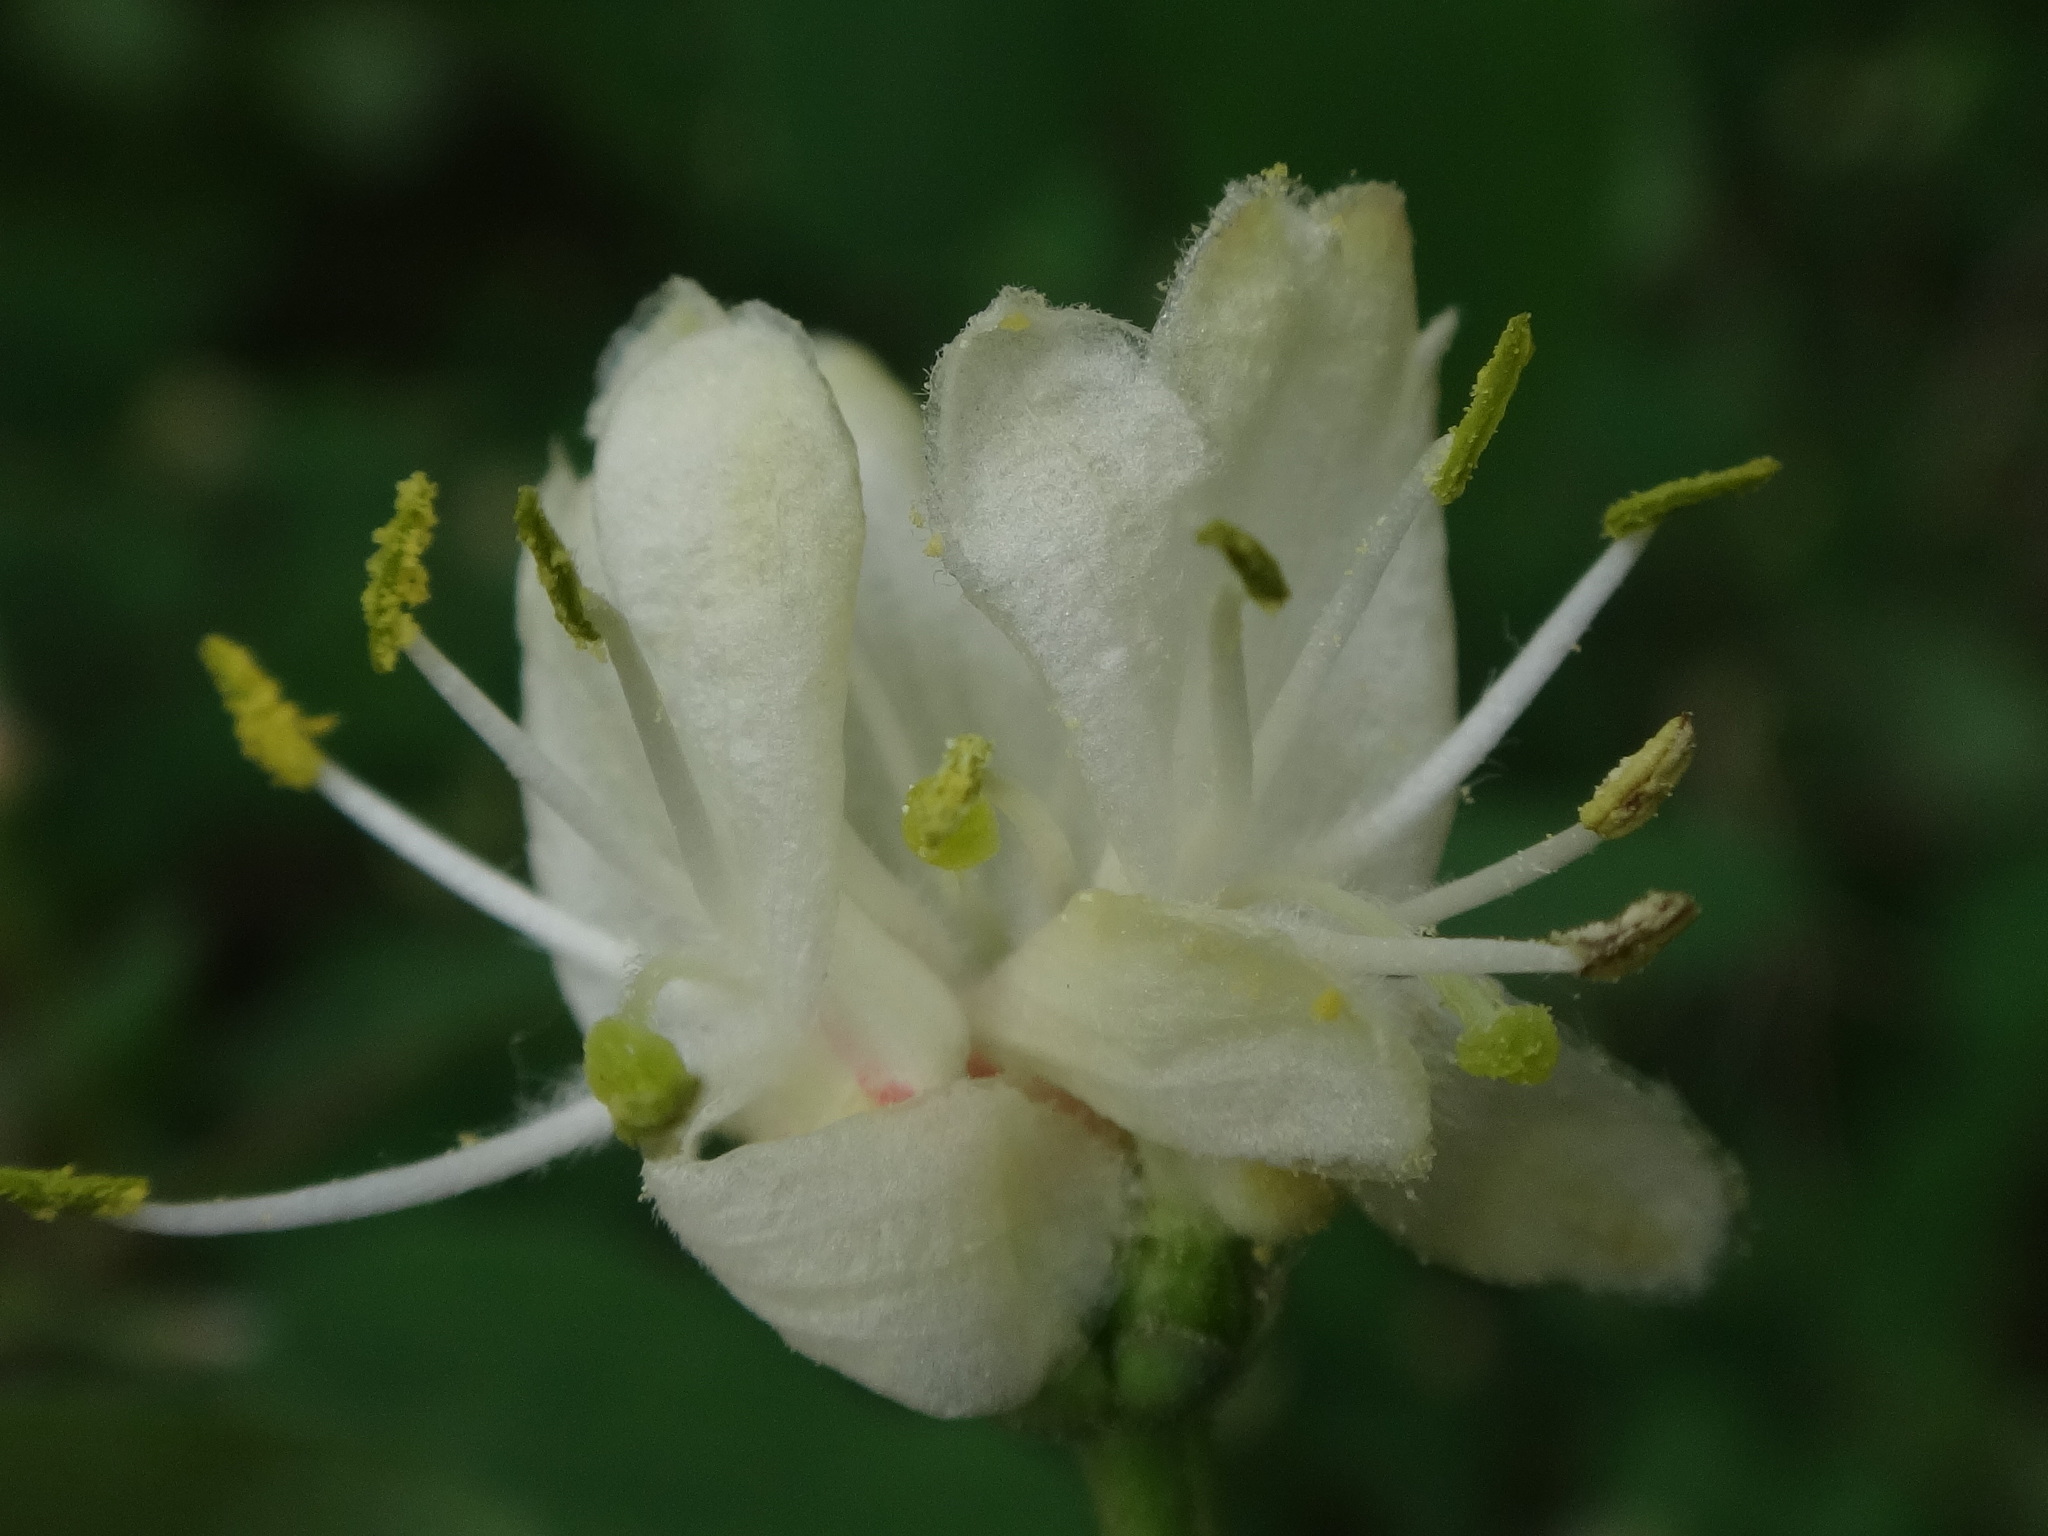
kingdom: Plantae
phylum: Tracheophyta
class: Magnoliopsida
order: Dipsacales
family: Caprifoliaceae
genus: Lonicera
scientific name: Lonicera xylosteum
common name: Fly honeysuckle
